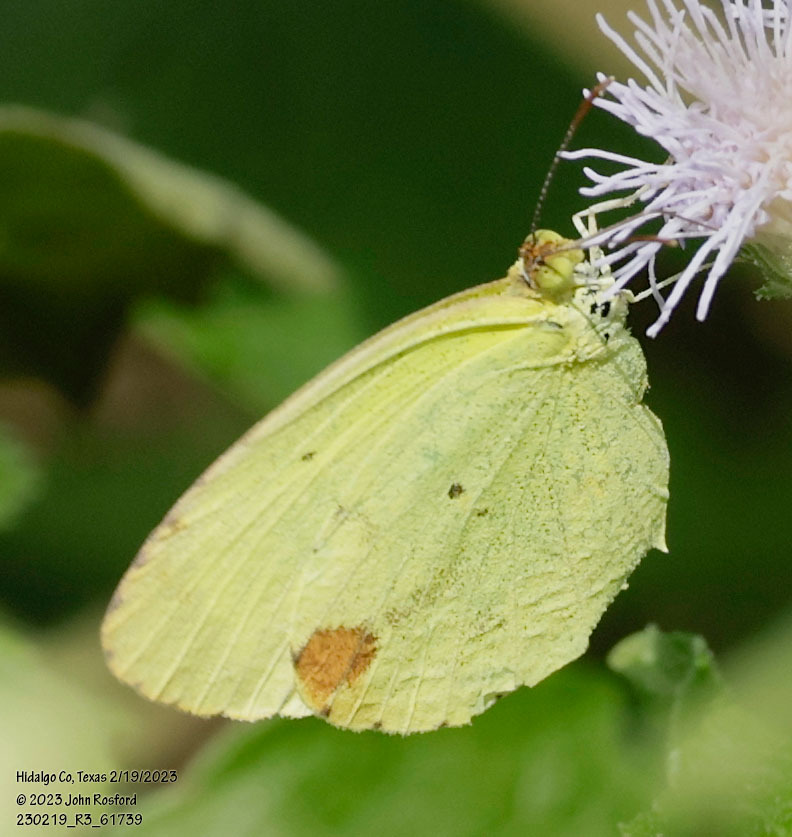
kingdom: Animalia
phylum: Arthropoda
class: Insecta
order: Lepidoptera
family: Pieridae
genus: Pyrisitia
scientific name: Pyrisitia nise
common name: Mimosa yellow
